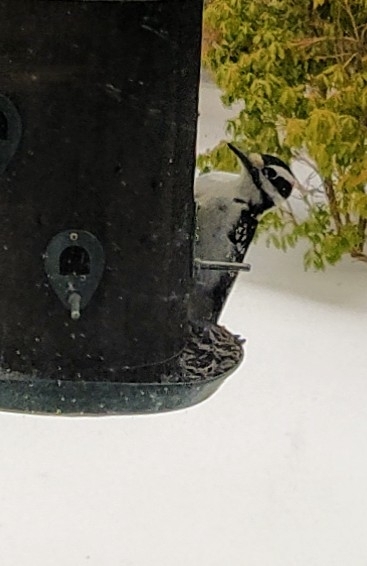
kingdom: Animalia
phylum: Chordata
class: Aves
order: Piciformes
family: Picidae
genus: Leuconotopicus
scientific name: Leuconotopicus villosus
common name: Hairy woodpecker
